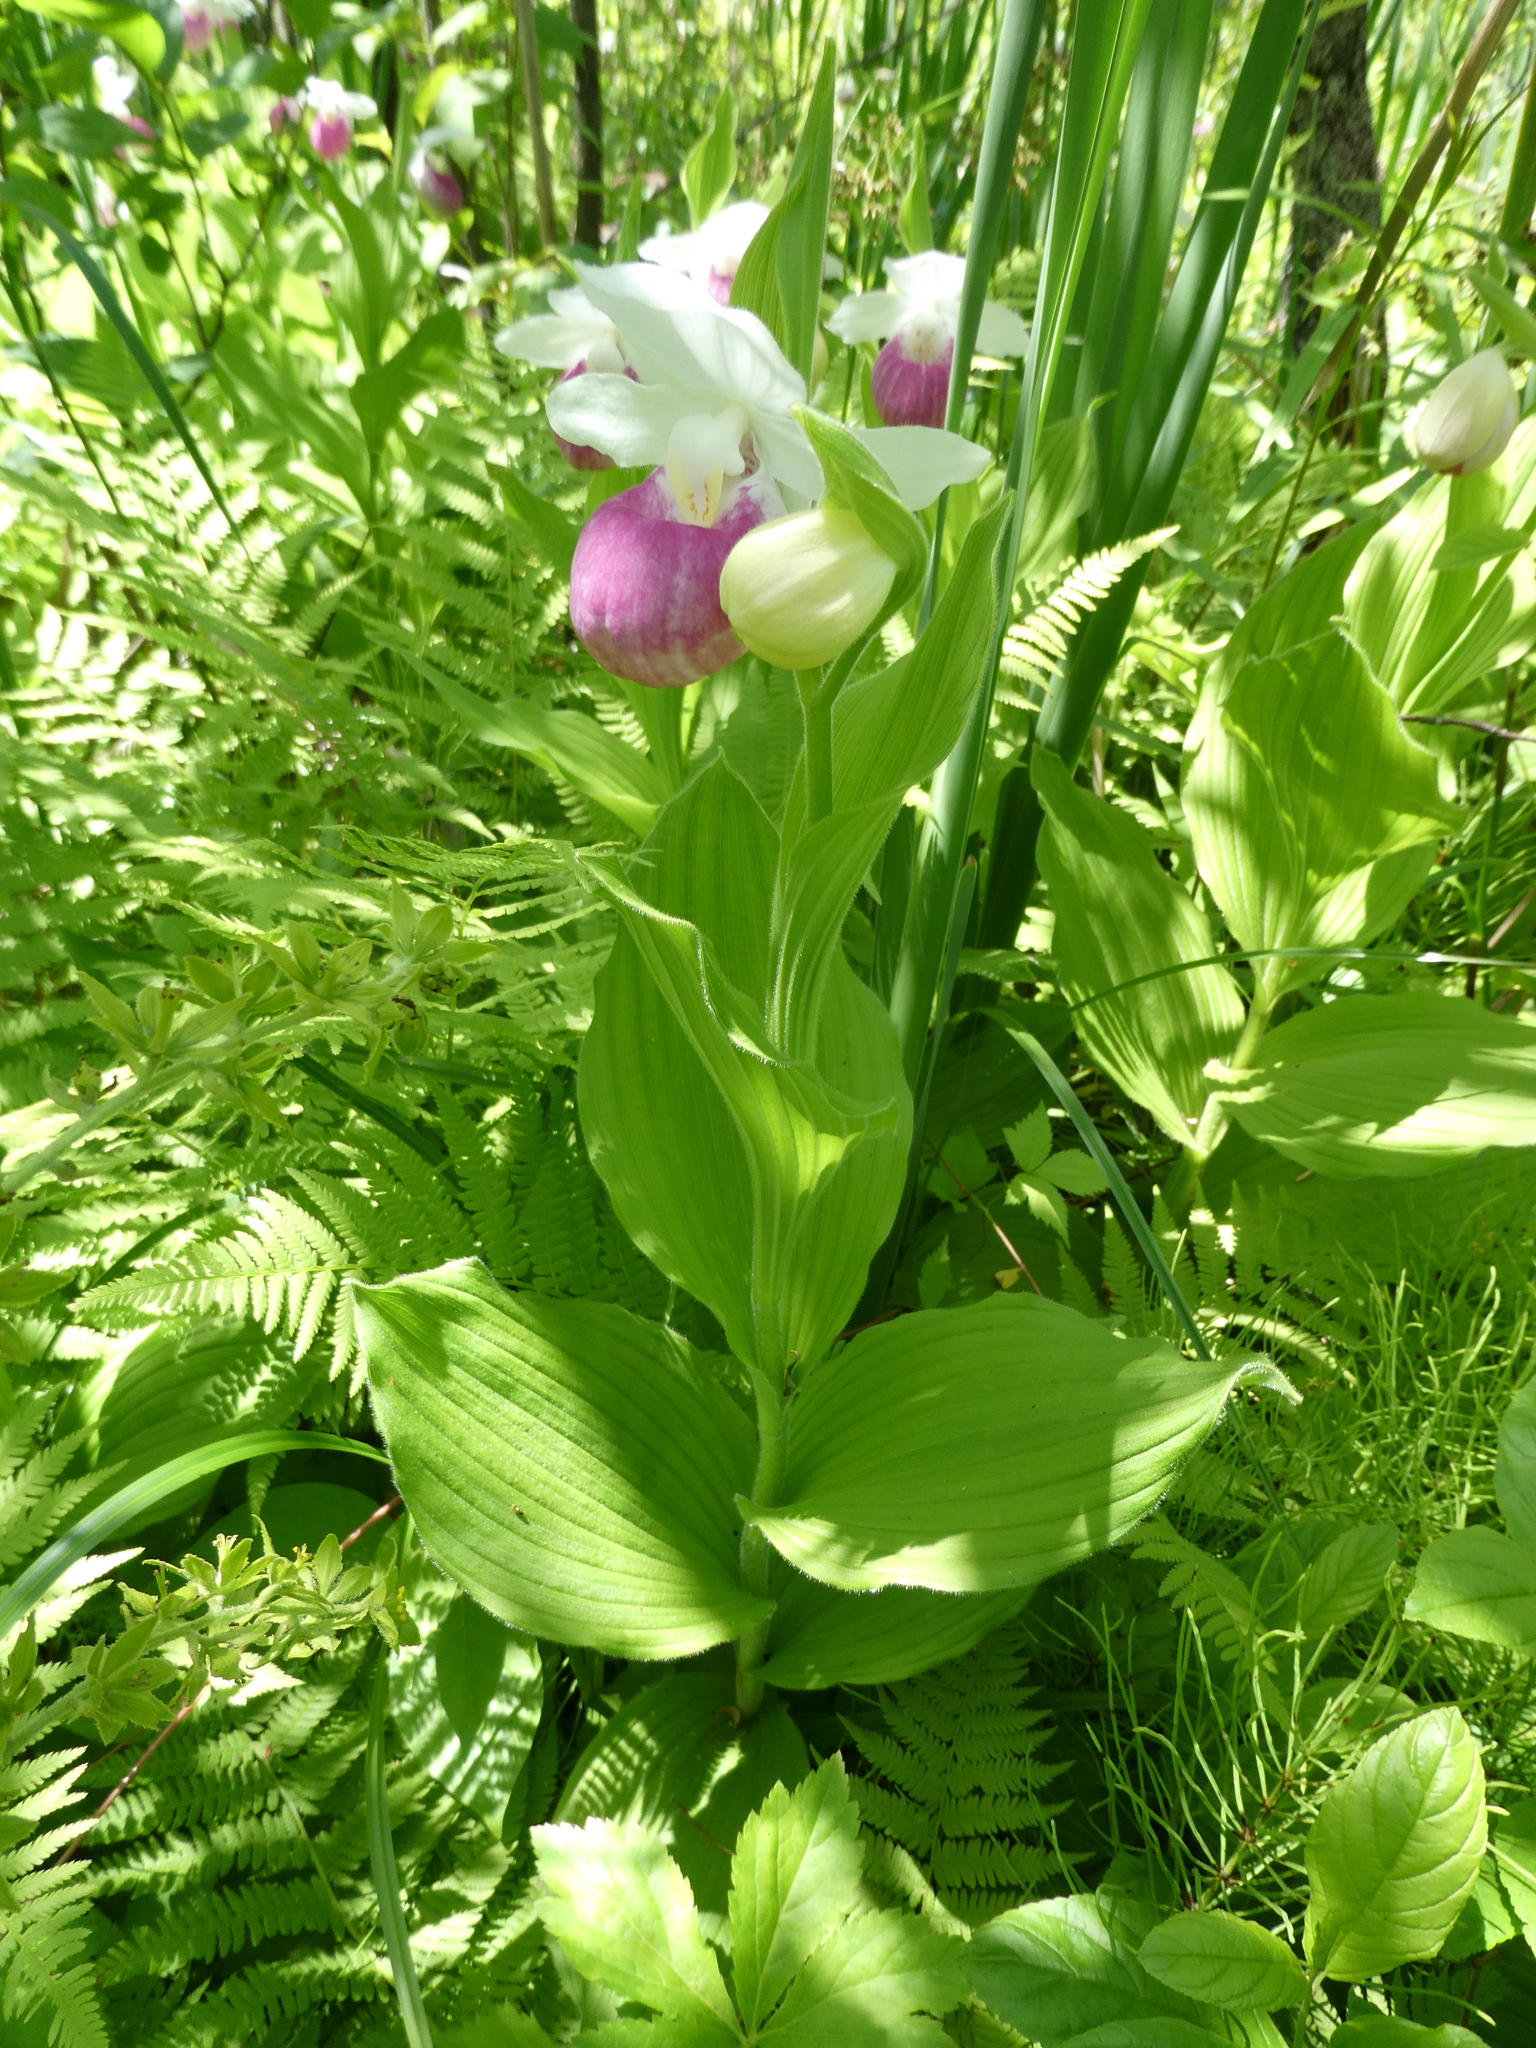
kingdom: Plantae
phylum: Tracheophyta
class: Liliopsida
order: Asparagales
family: Orchidaceae
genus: Cypripedium
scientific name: Cypripedium reginae
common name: Queen lady's-slipper
